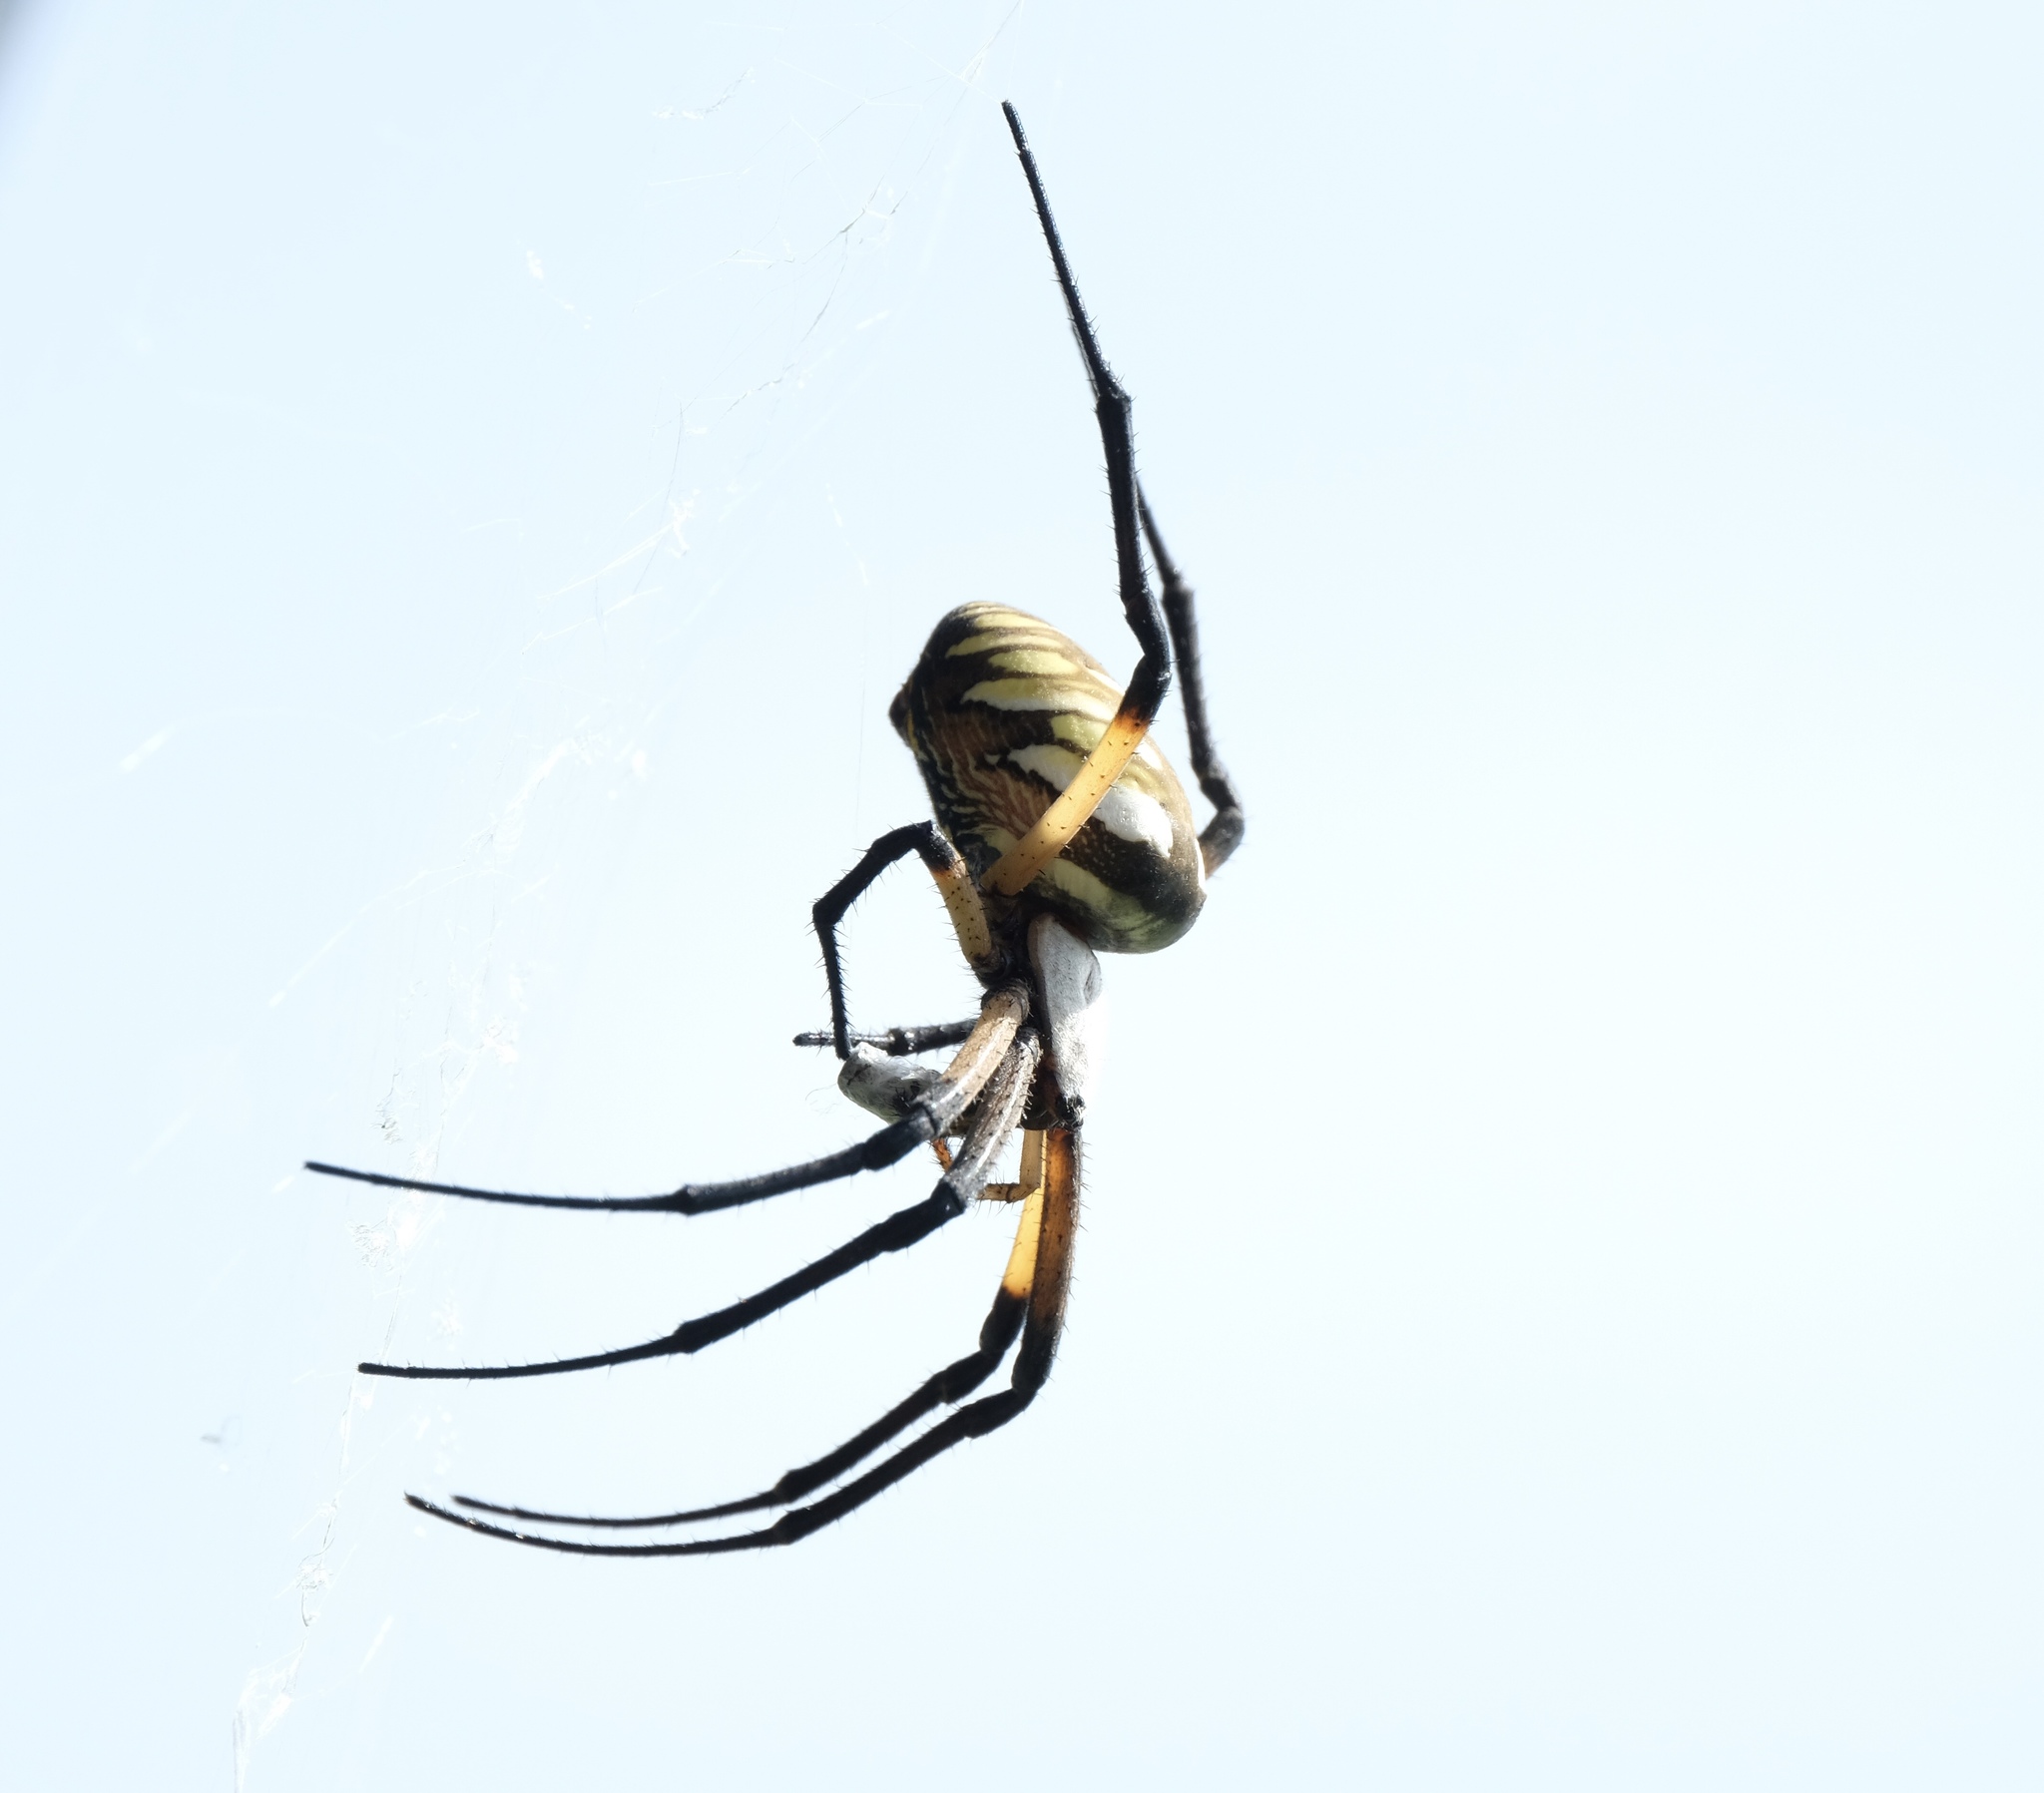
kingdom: Animalia
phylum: Arthropoda
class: Arachnida
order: Araneae
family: Araneidae
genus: Argiope
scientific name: Argiope aurantia
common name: Orb weavers
